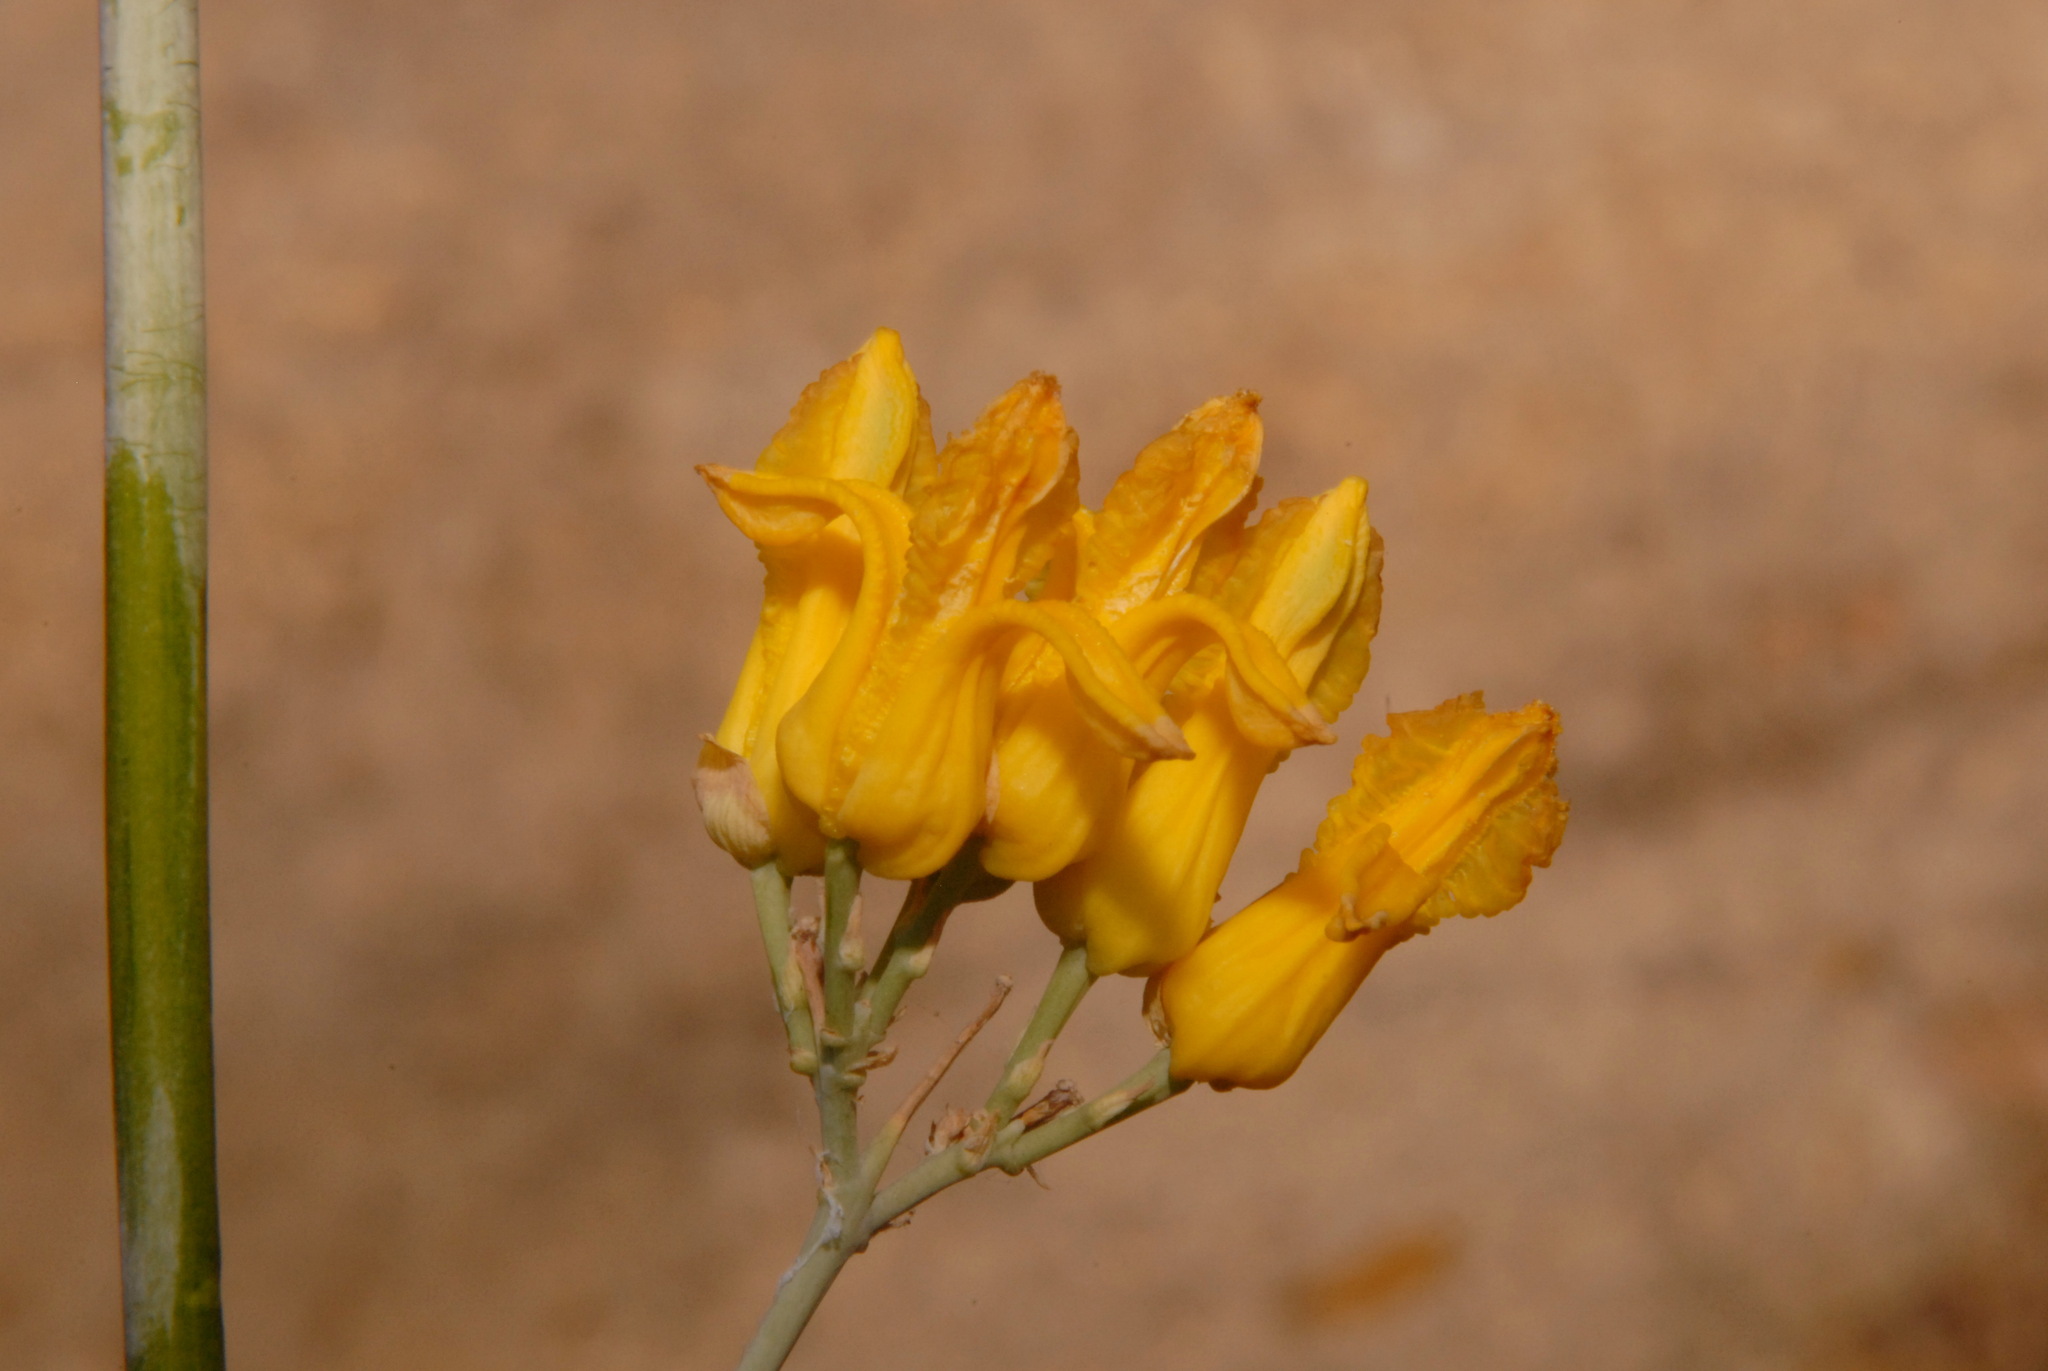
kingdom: Plantae
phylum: Tracheophyta
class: Magnoliopsida
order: Ranunculales
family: Papaveraceae
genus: Ehrendorferia
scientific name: Ehrendorferia chrysantha
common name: Golden eardrops
